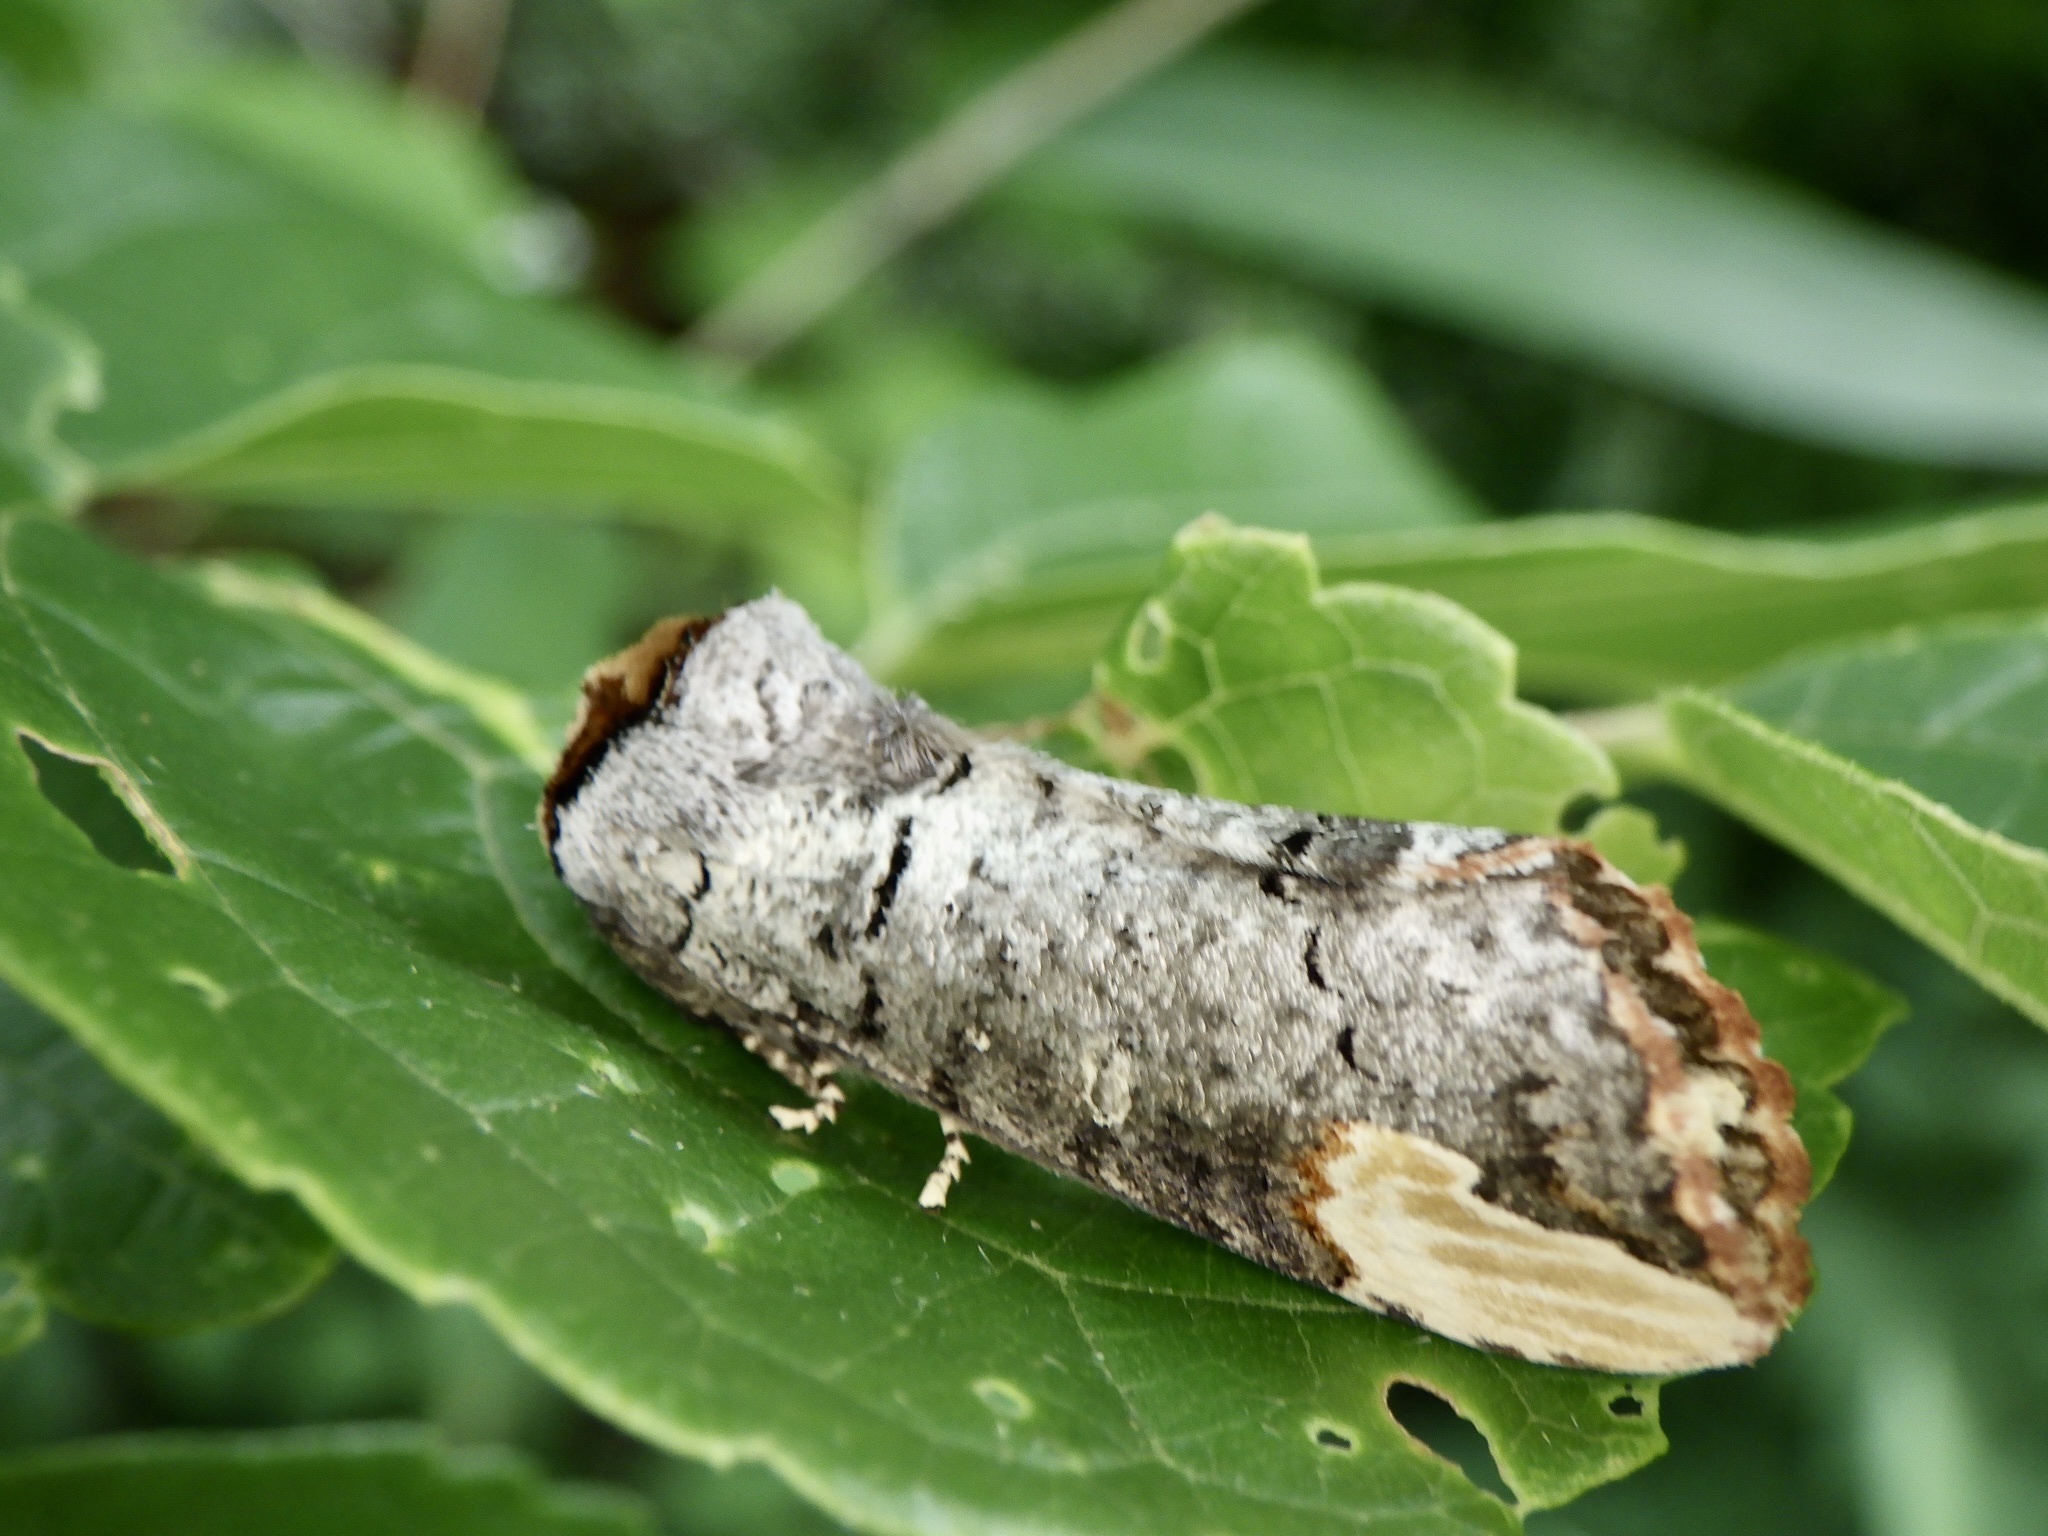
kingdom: Animalia
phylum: Arthropoda
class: Insecta
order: Lepidoptera
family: Notodontidae
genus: Phalera
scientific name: Phalera assimilis
